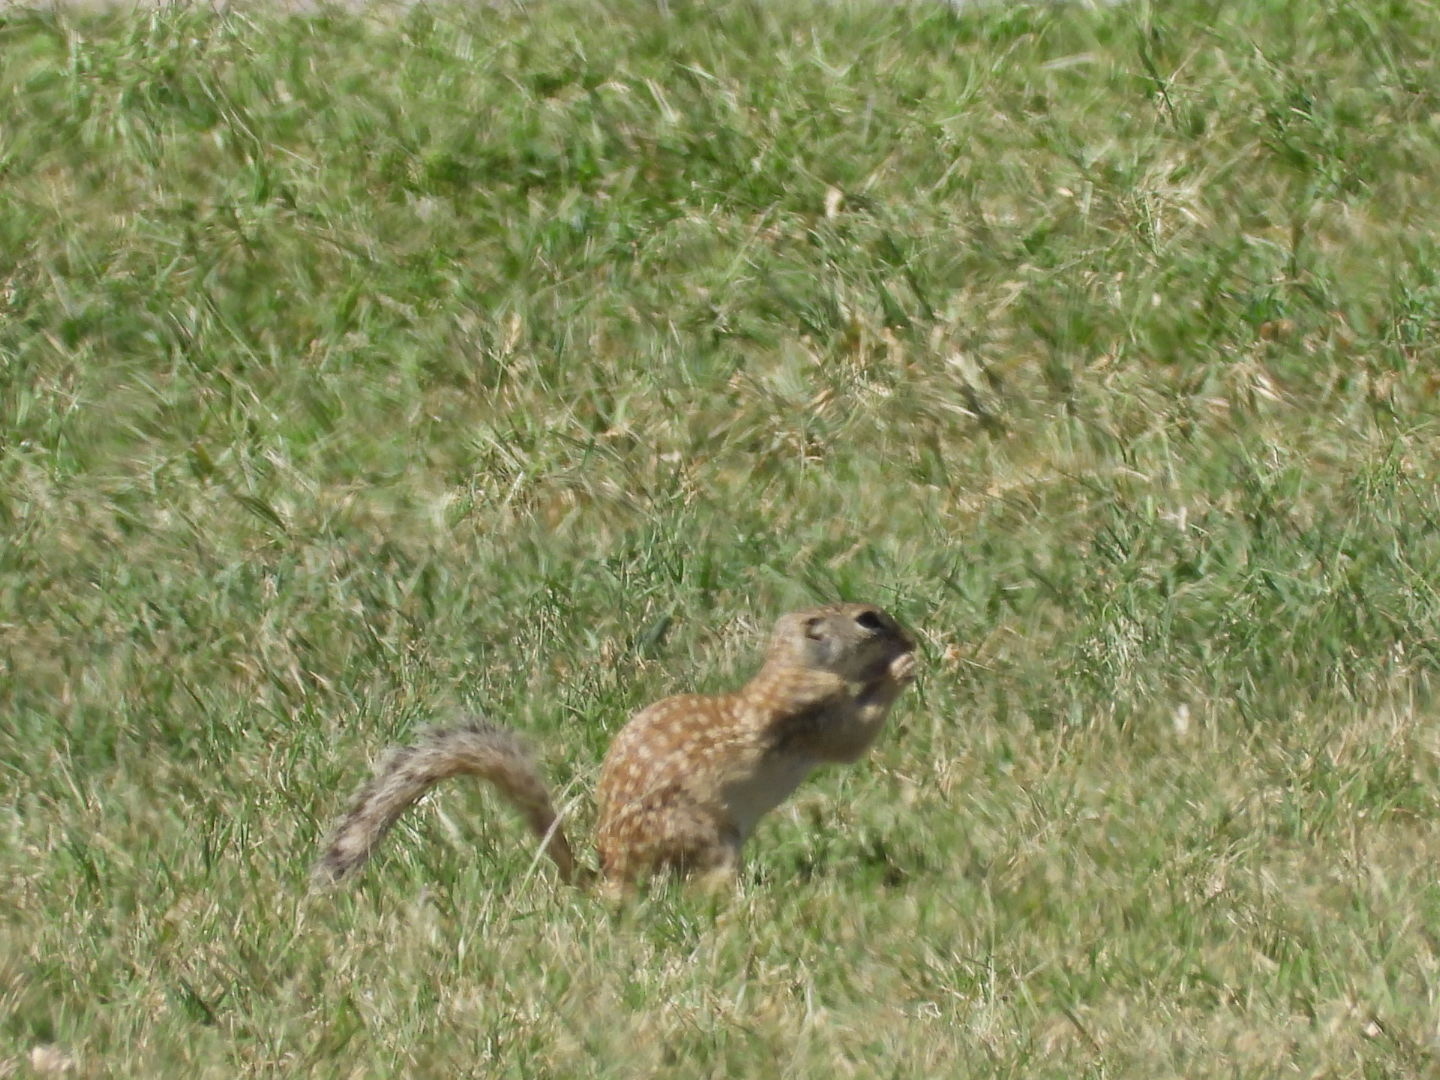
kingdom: Animalia
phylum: Chordata
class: Mammalia
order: Rodentia
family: Sciuridae
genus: Ictidomys
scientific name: Ictidomys parvidens
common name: Rio grande ground squirrel
